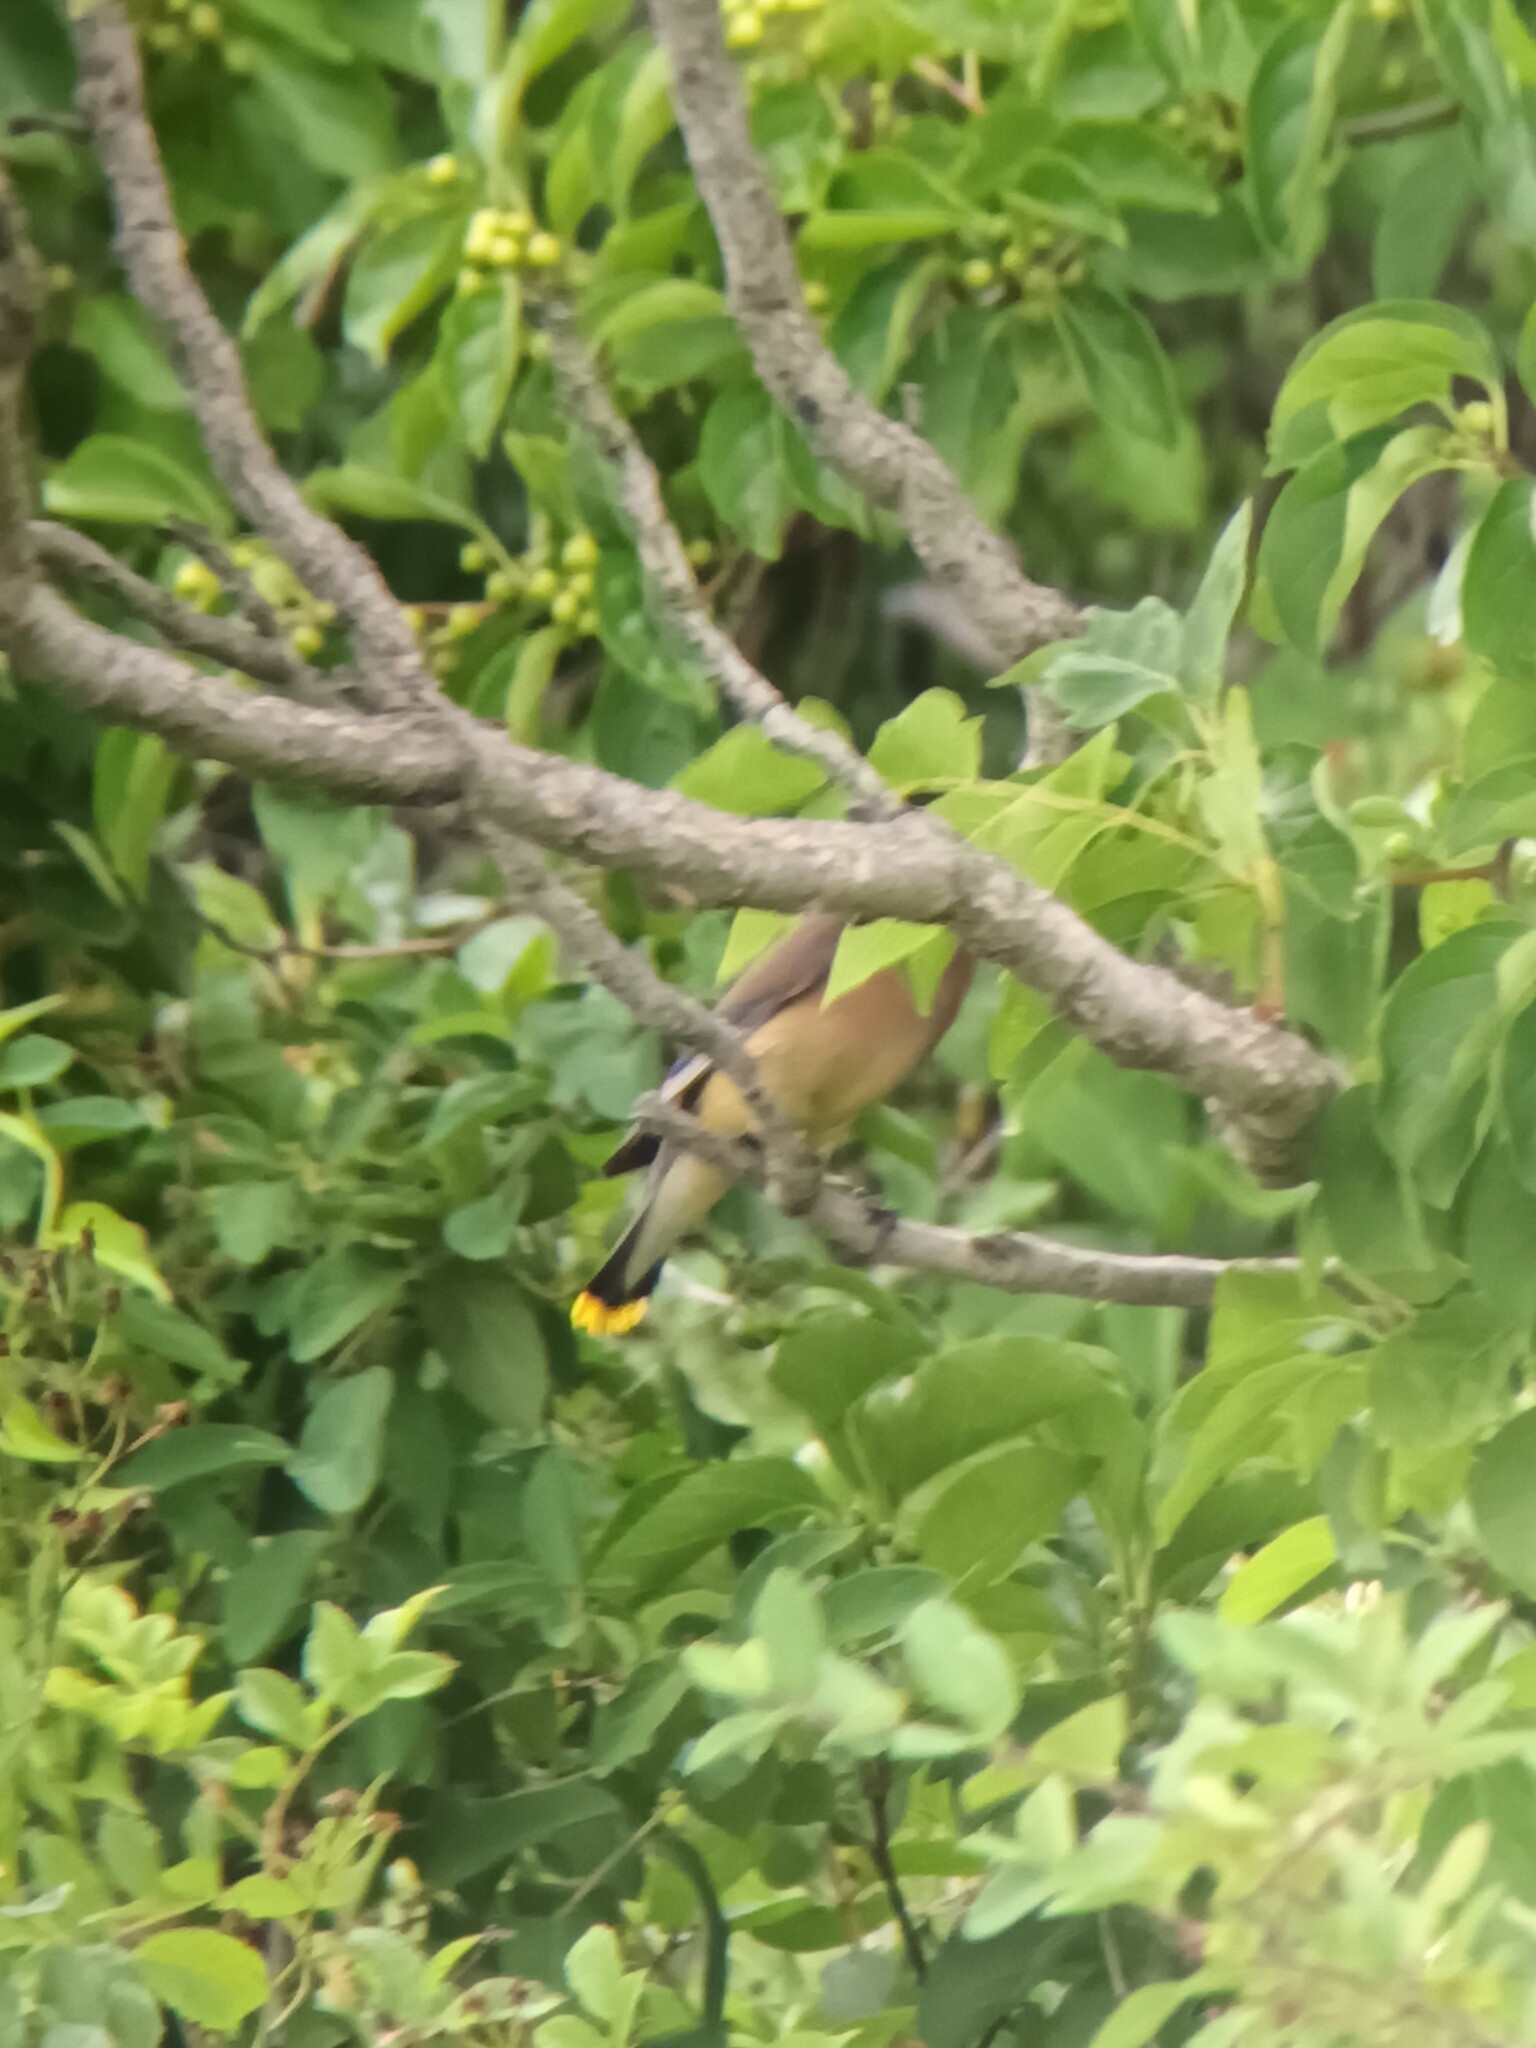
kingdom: Animalia
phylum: Chordata
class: Aves
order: Passeriformes
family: Bombycillidae
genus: Bombycilla
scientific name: Bombycilla cedrorum
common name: Cedar waxwing
